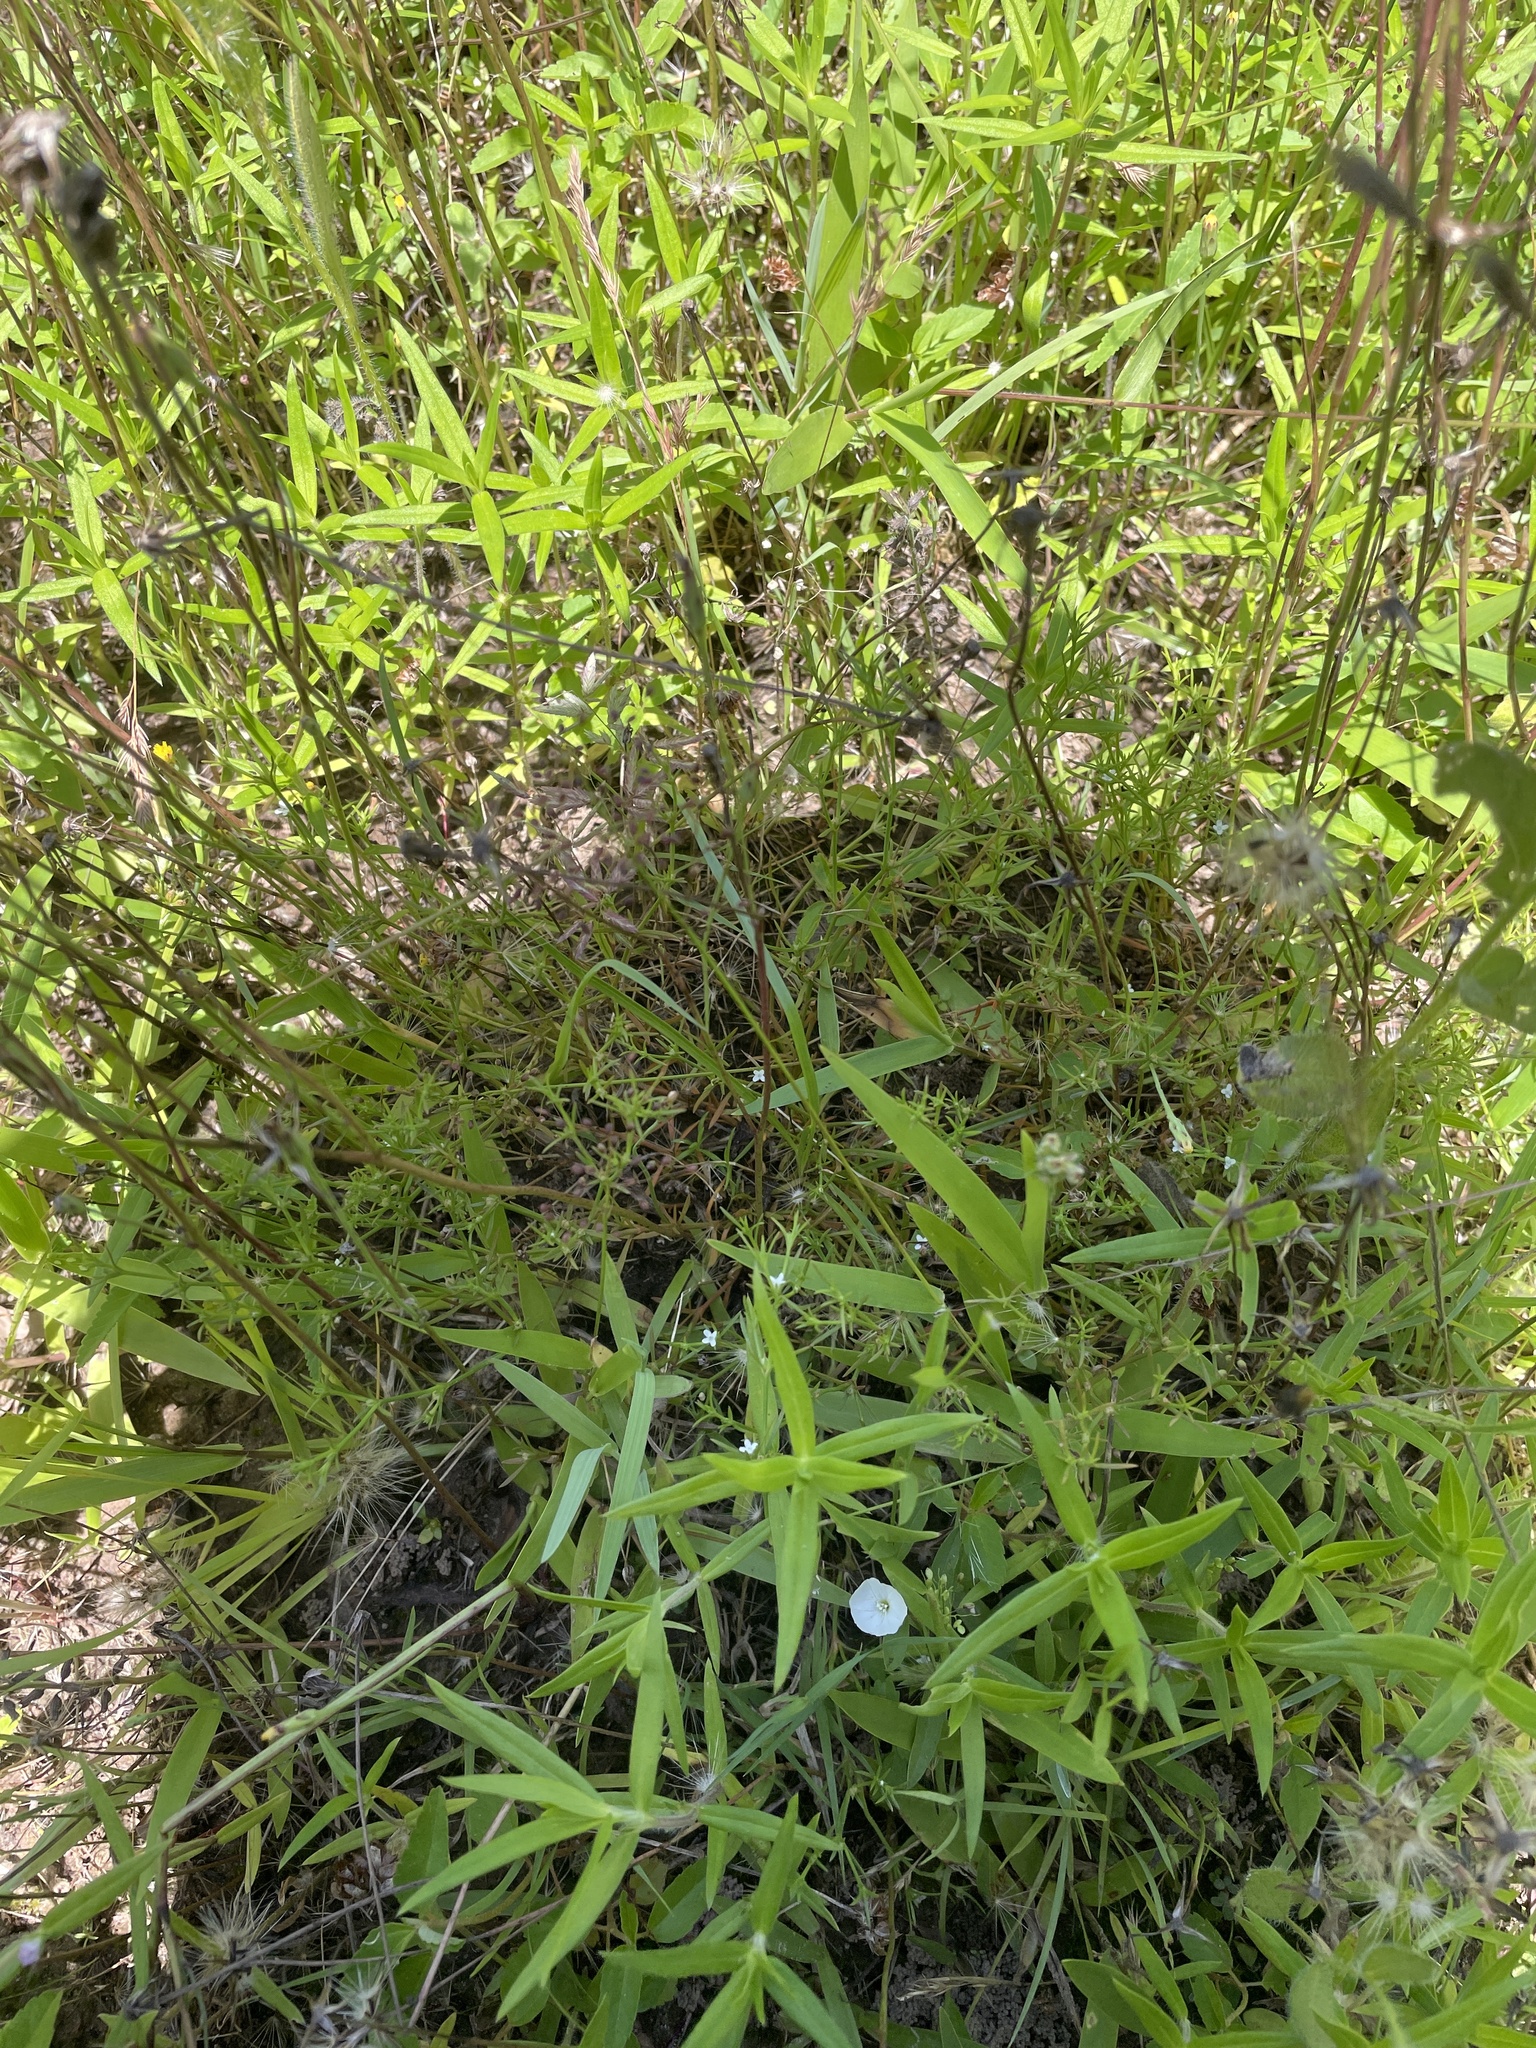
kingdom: Plantae
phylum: Tracheophyta
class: Magnoliopsida
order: Lamiales
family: Tetrachondraceae
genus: Polypremum
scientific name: Polypremum procumbens
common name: Juniper-leaf
